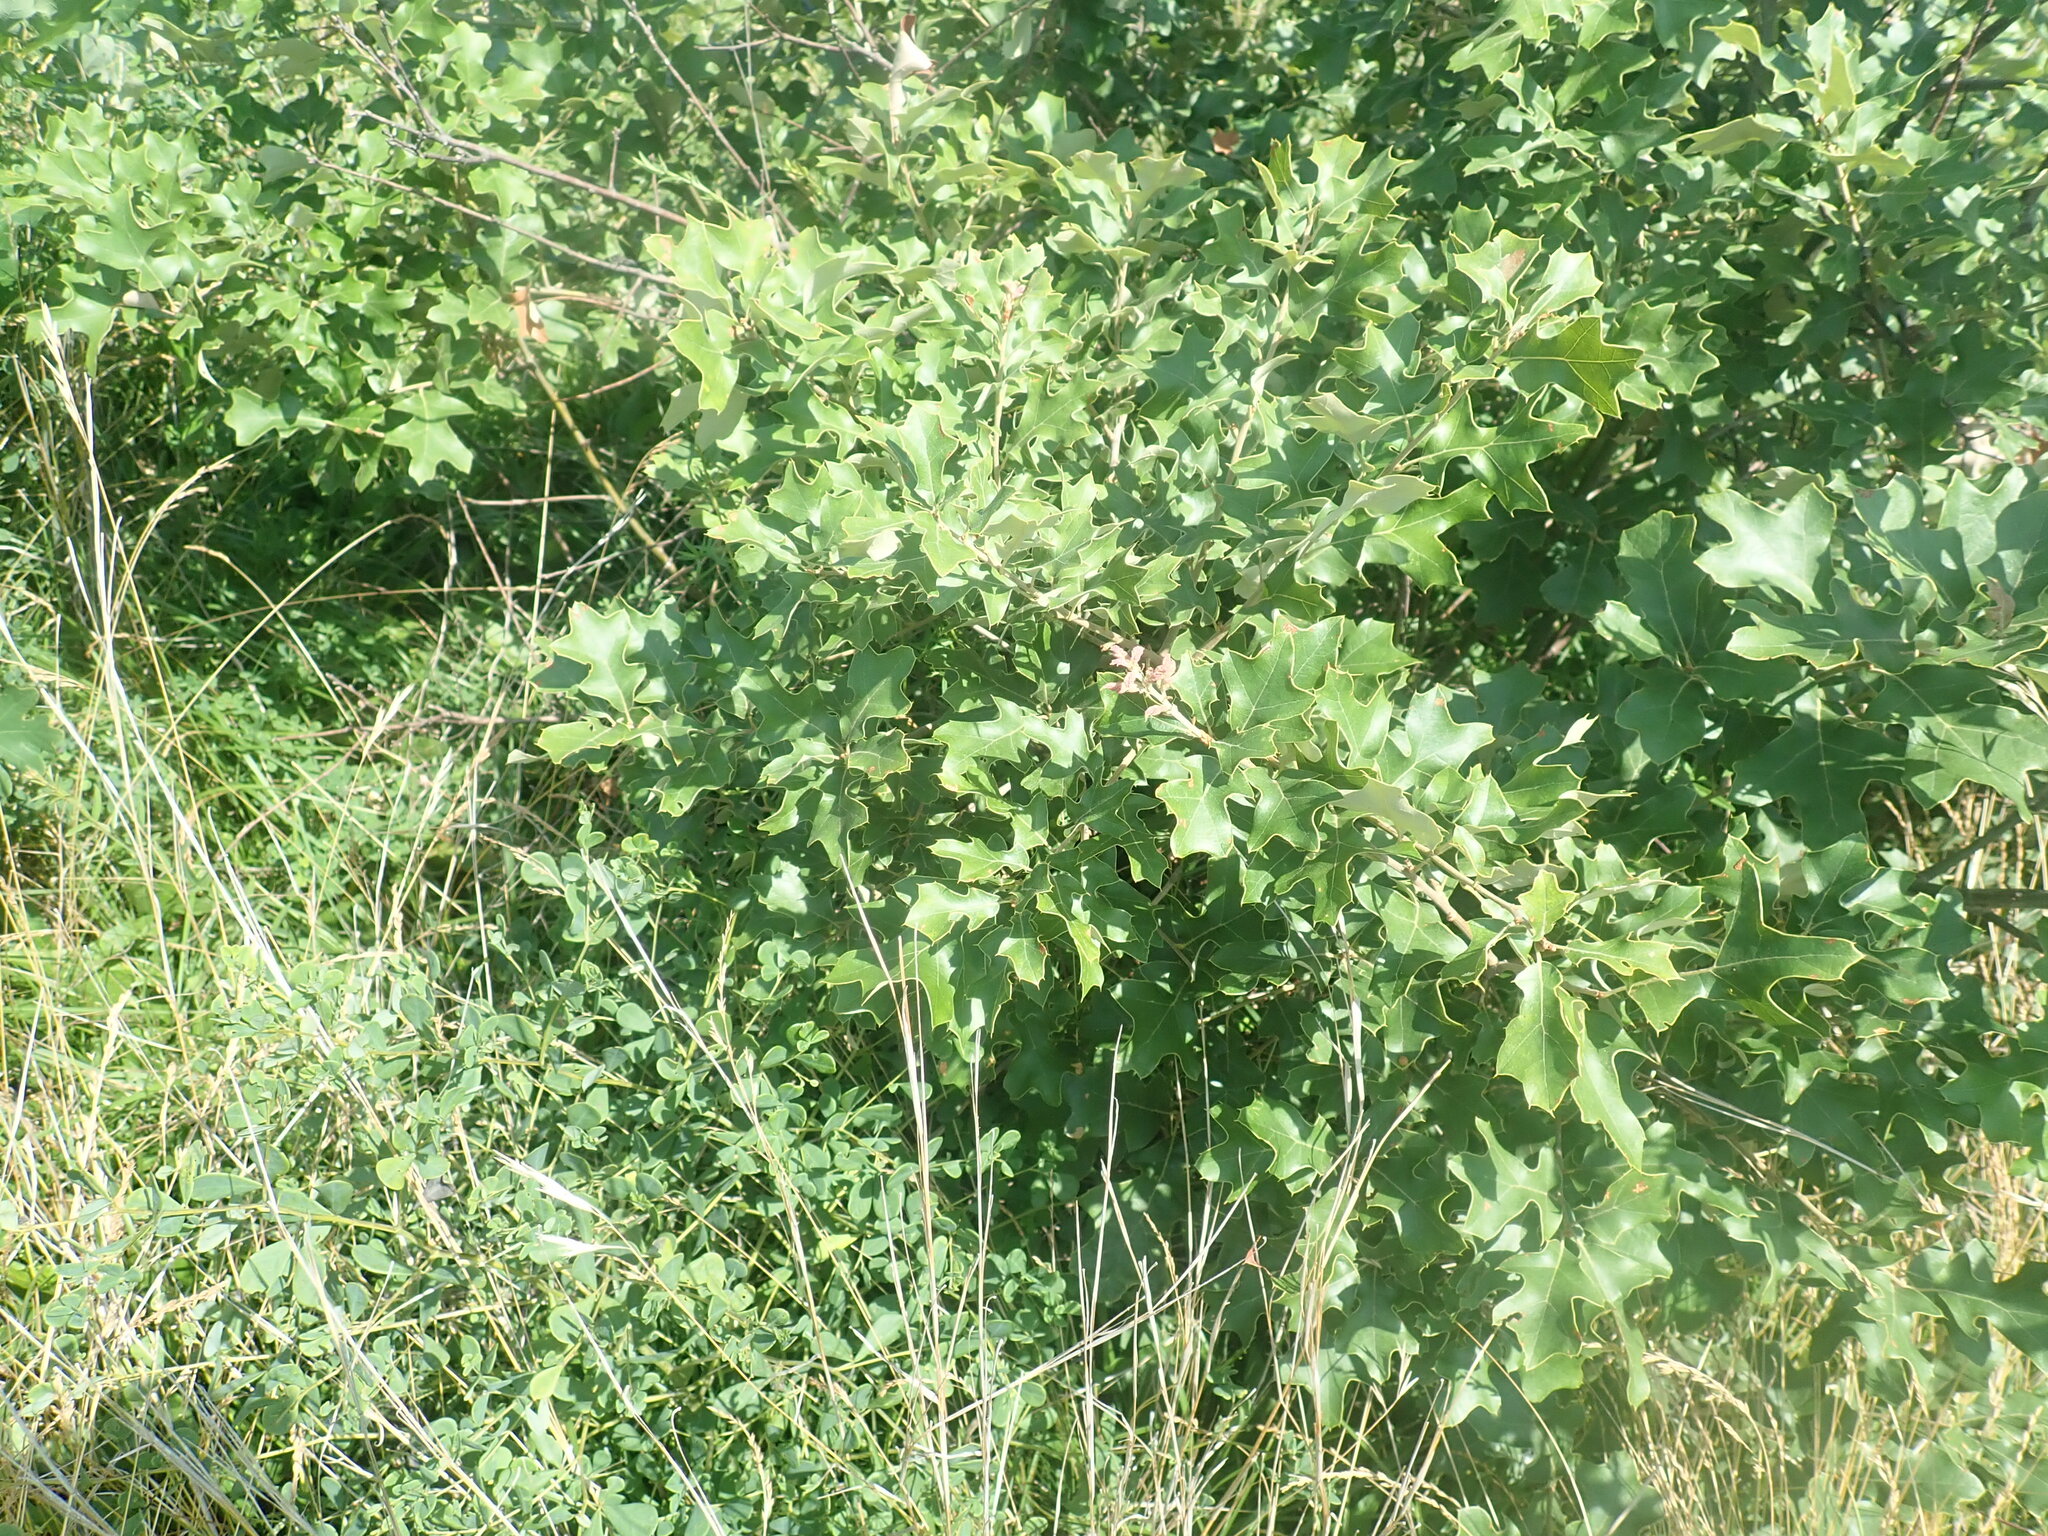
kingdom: Plantae
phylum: Tracheophyta
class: Magnoliopsida
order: Fagales
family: Fagaceae
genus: Quercus
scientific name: Quercus ilicifolia
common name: Bear oak
